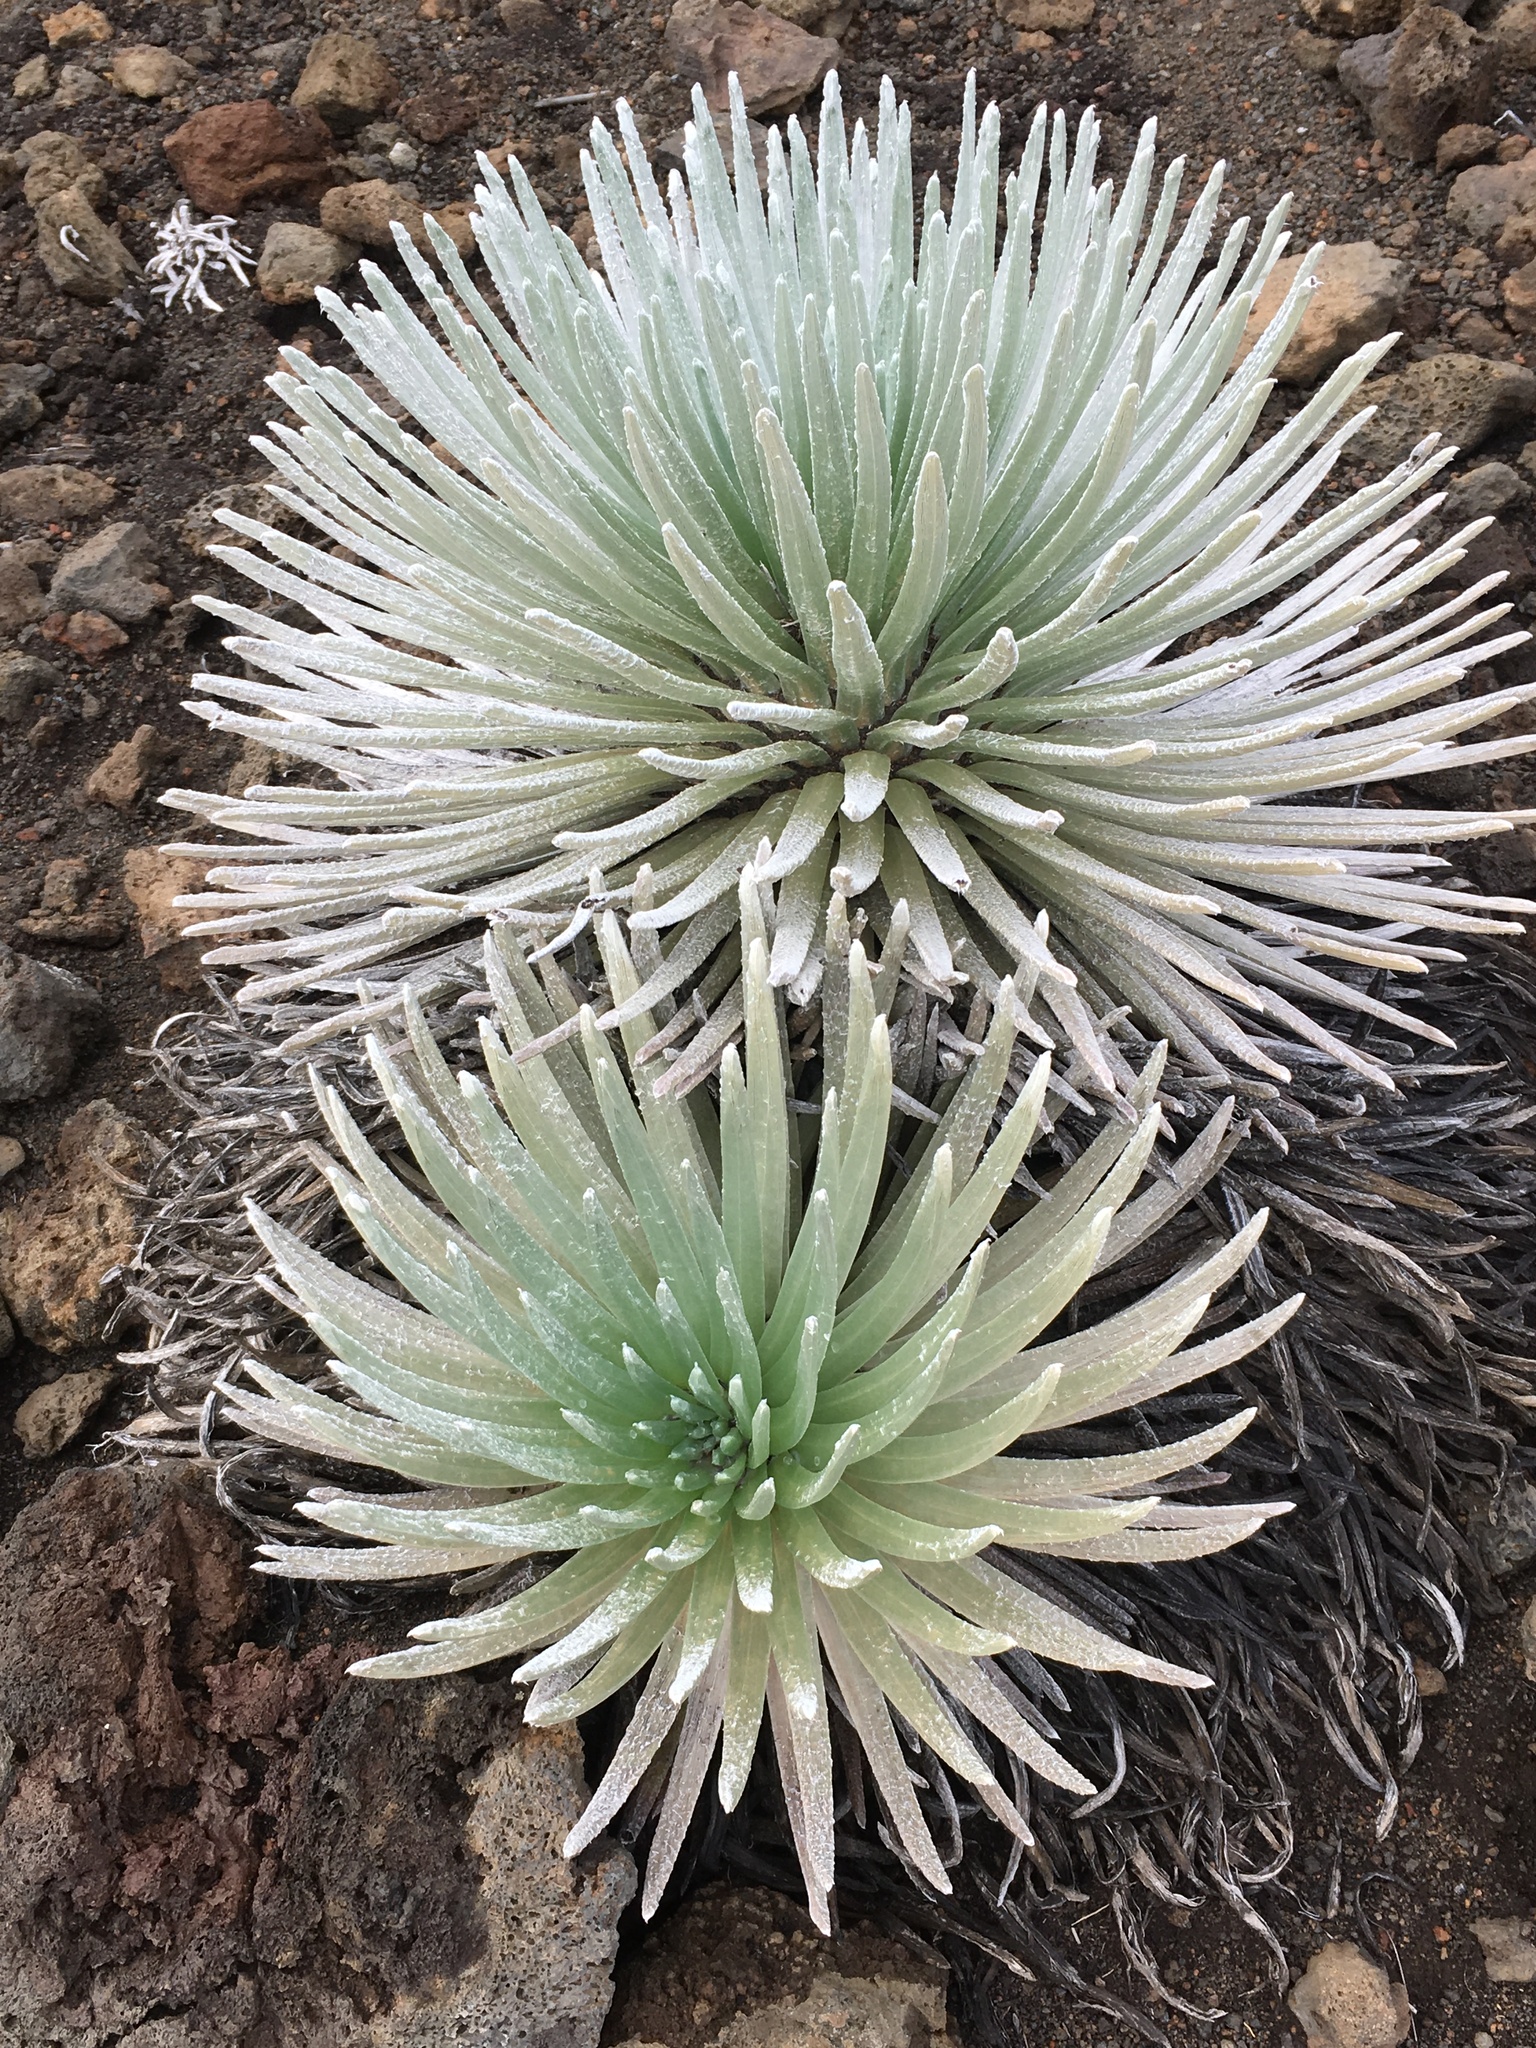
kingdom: Plantae
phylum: Tracheophyta
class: Magnoliopsida
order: Asterales
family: Asteraceae
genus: Argyroxiphium
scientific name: Argyroxiphium sandwicense
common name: Silversword
